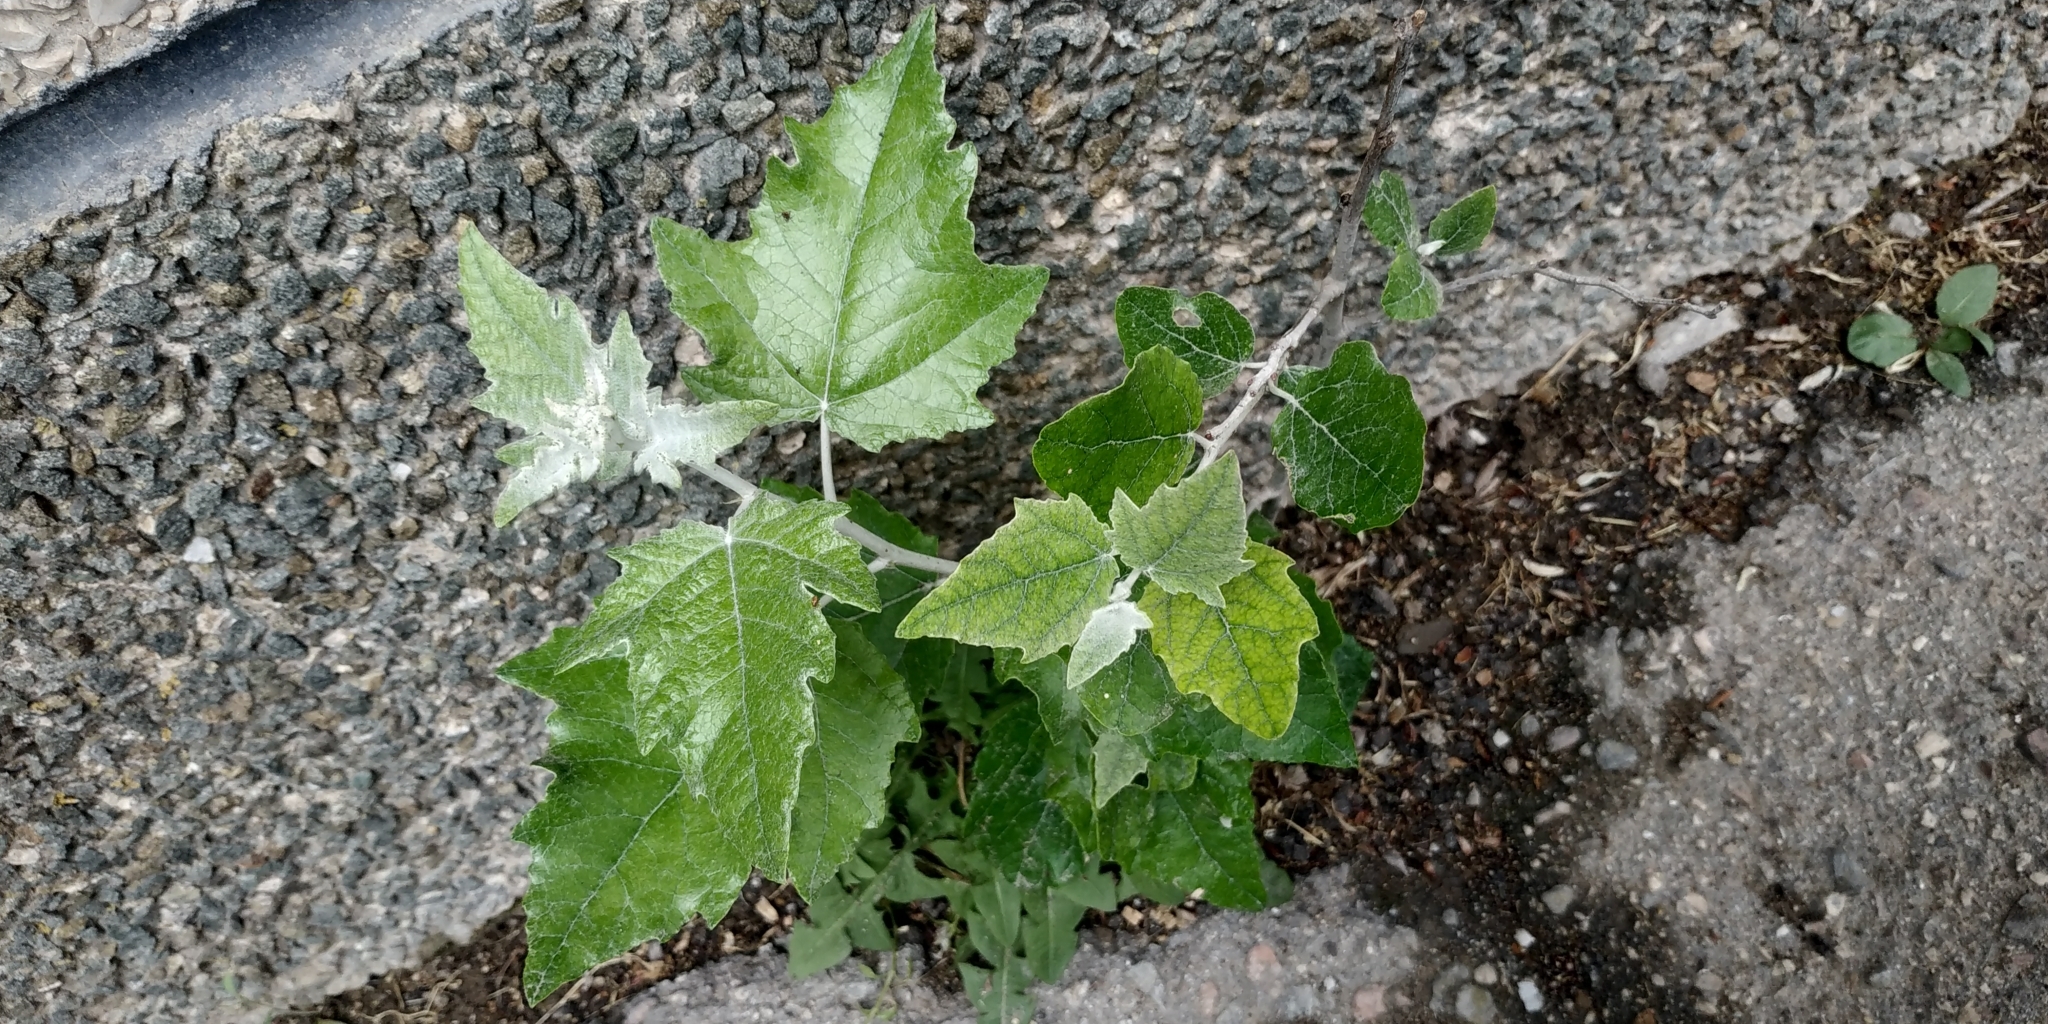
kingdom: Plantae
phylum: Tracheophyta
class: Magnoliopsida
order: Malpighiales
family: Salicaceae
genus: Populus
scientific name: Populus alba
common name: White poplar
